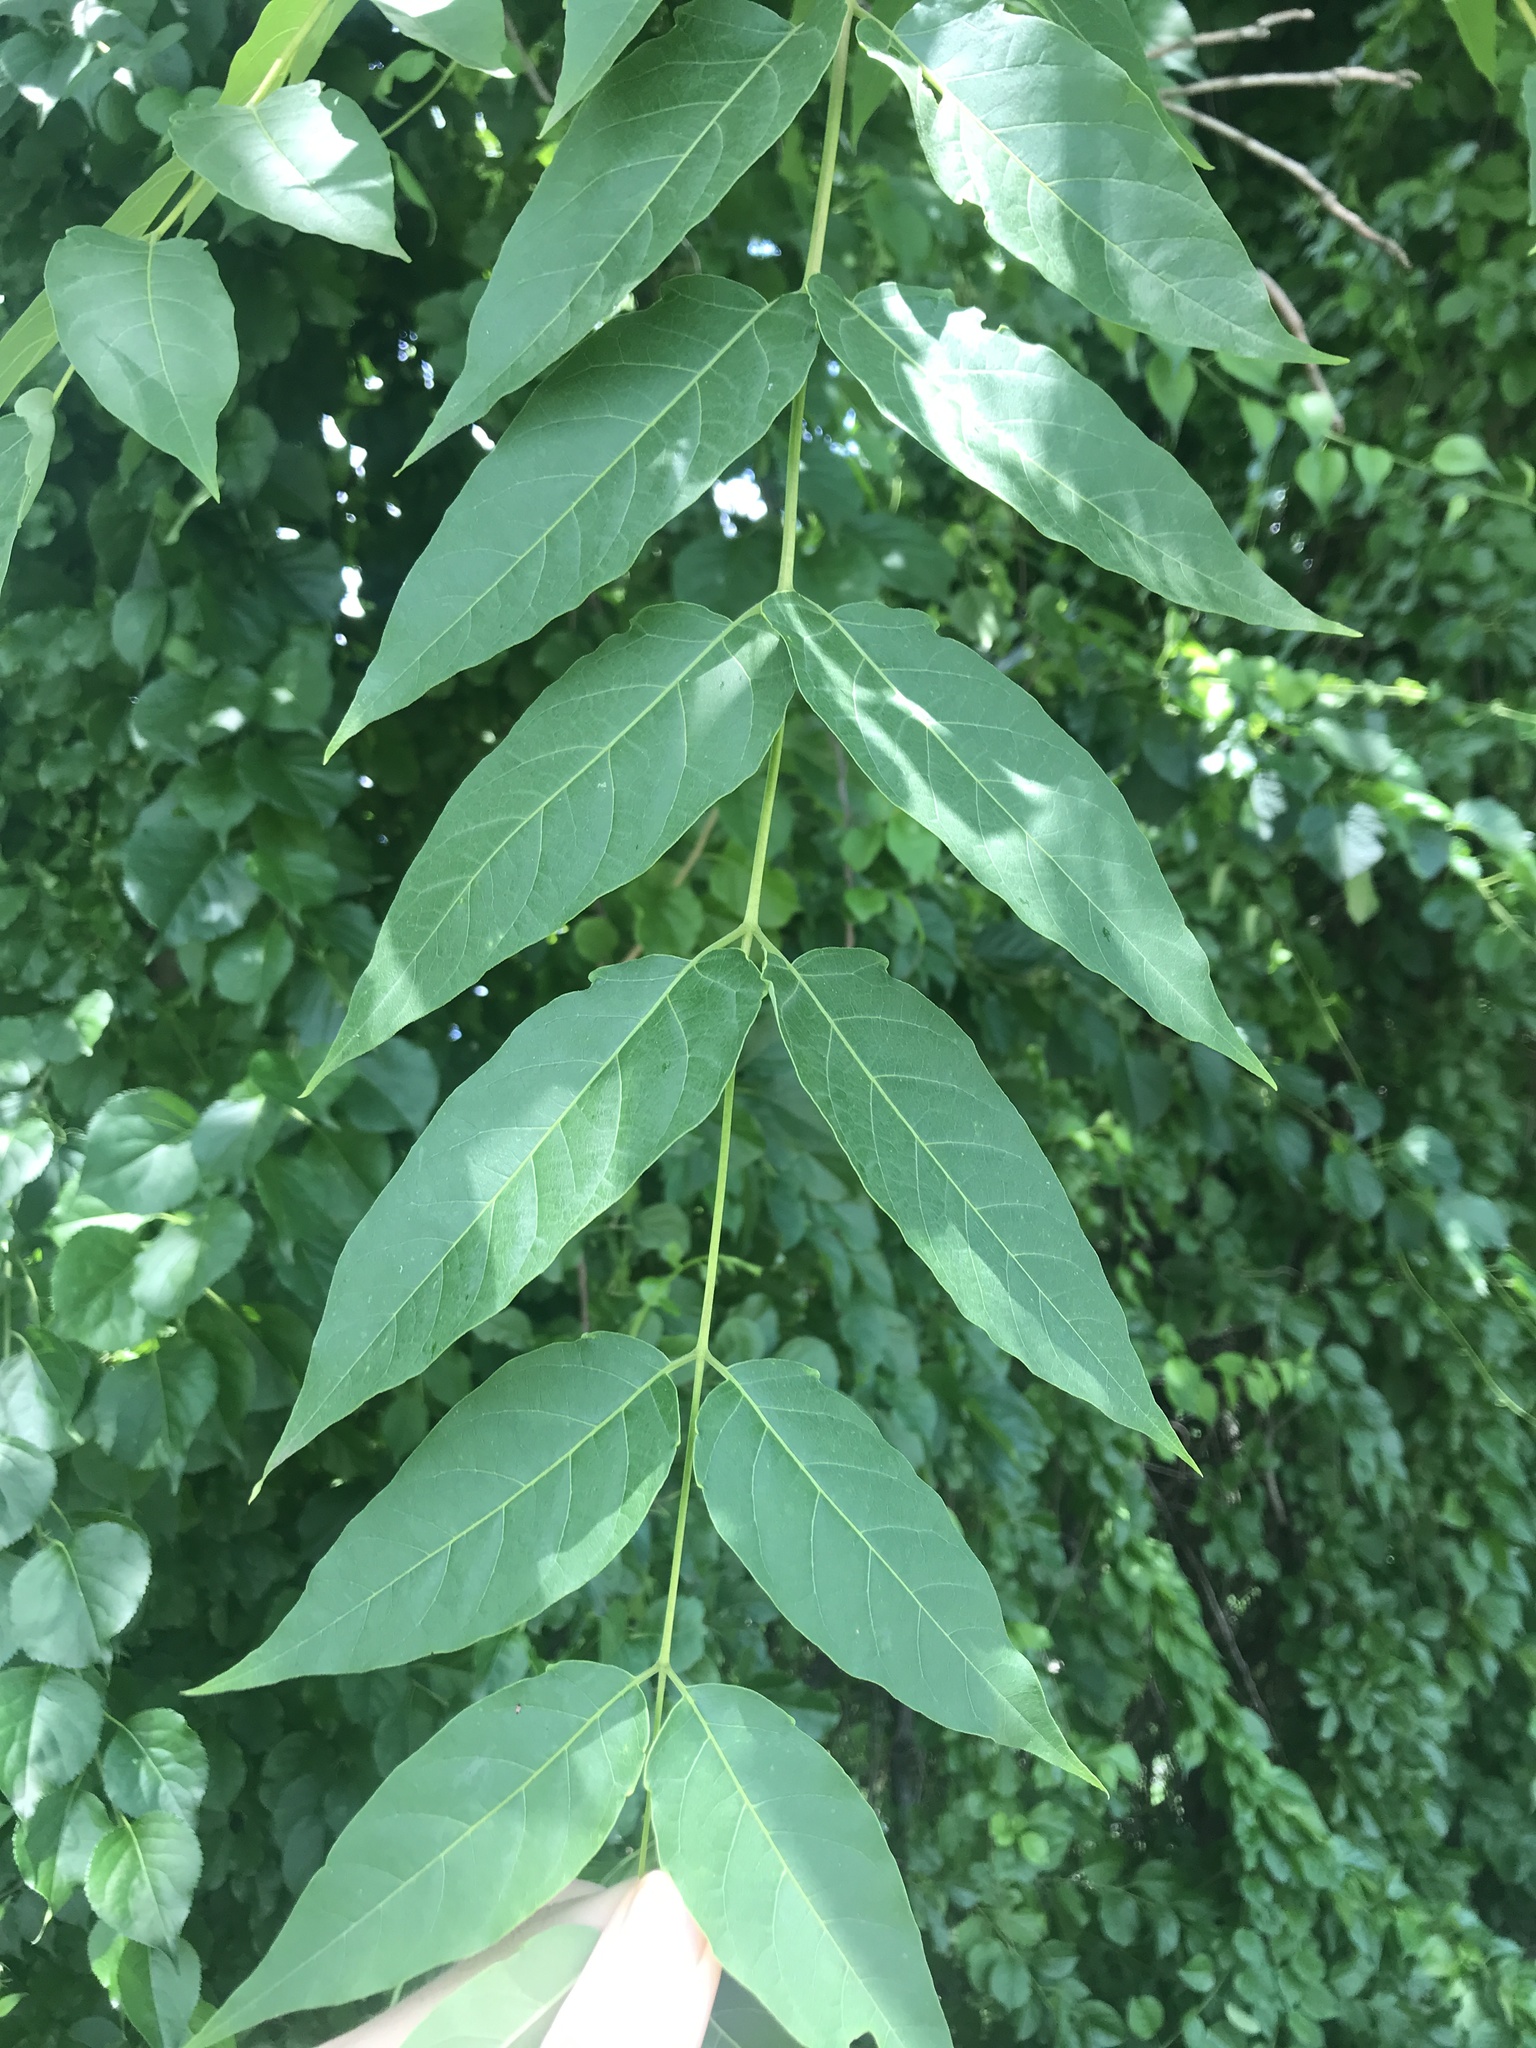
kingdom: Plantae
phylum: Tracheophyta
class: Magnoliopsida
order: Sapindales
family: Simaroubaceae
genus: Ailanthus
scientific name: Ailanthus altissima
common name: Tree-of-heaven
